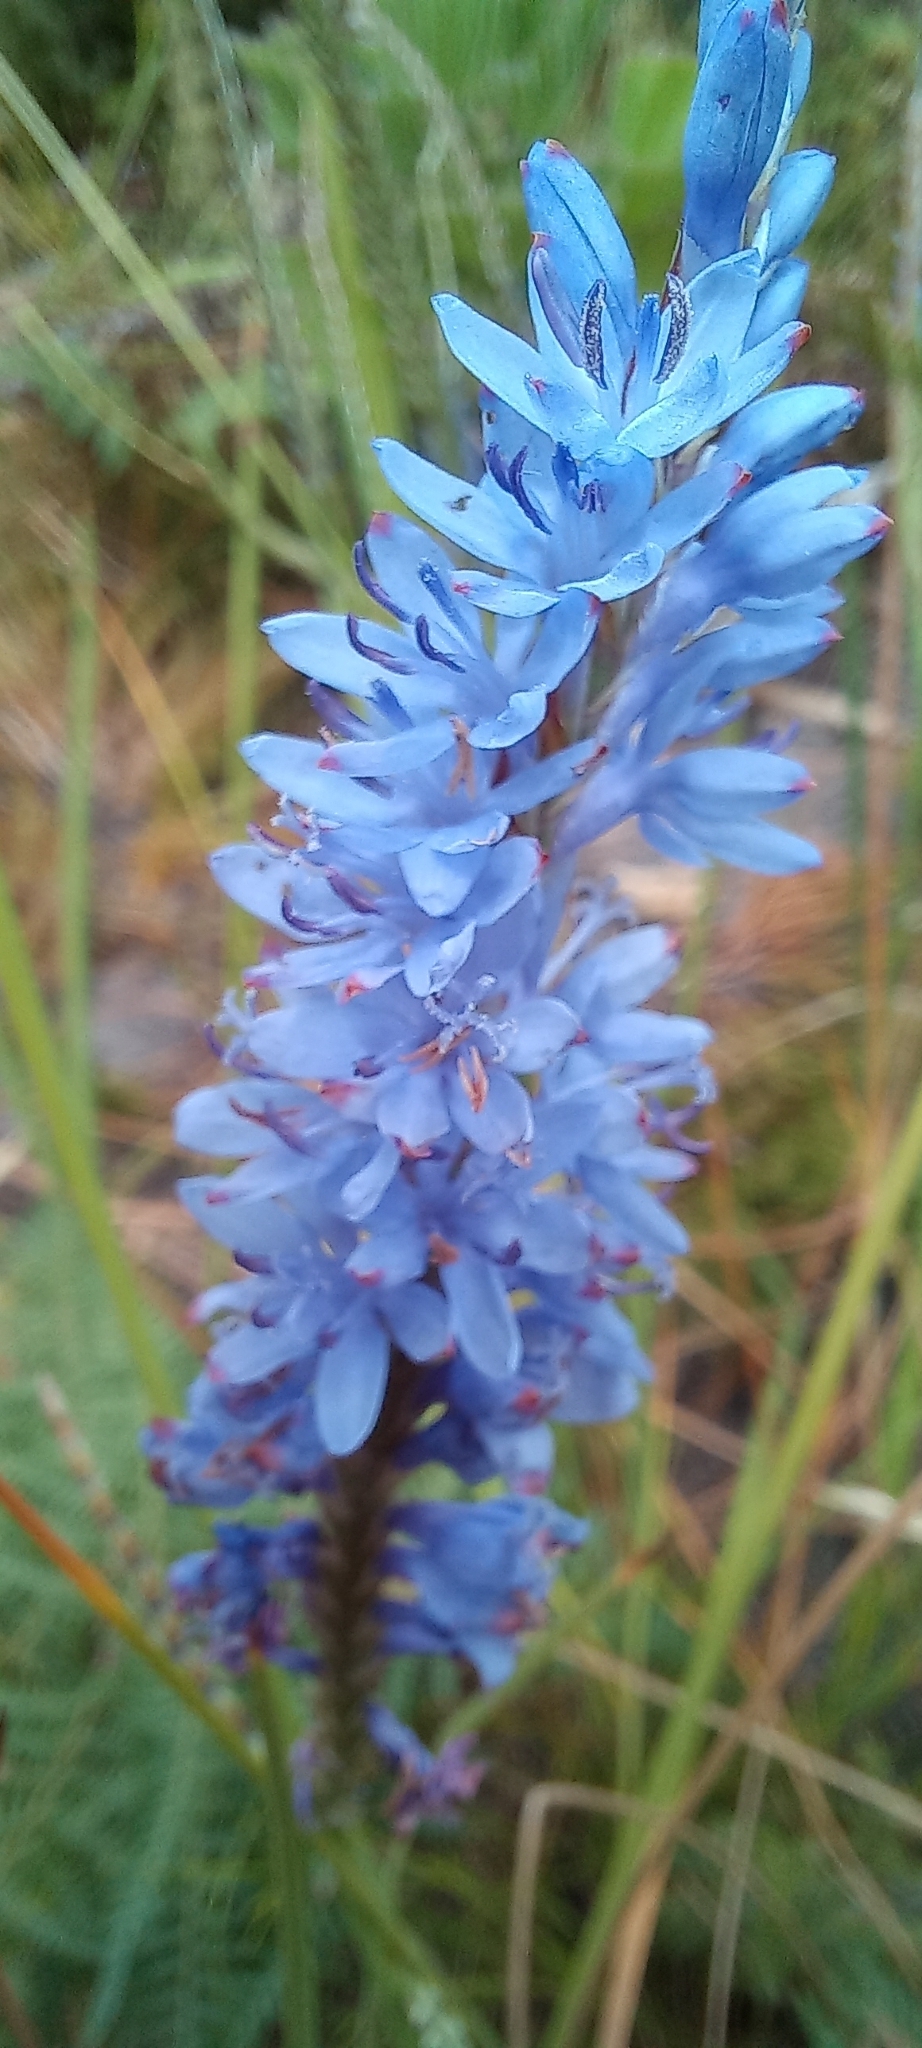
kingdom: Plantae
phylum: Tracheophyta
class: Liliopsida
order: Asparagales
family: Iridaceae
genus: Micranthus
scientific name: Micranthus alopecuroides
